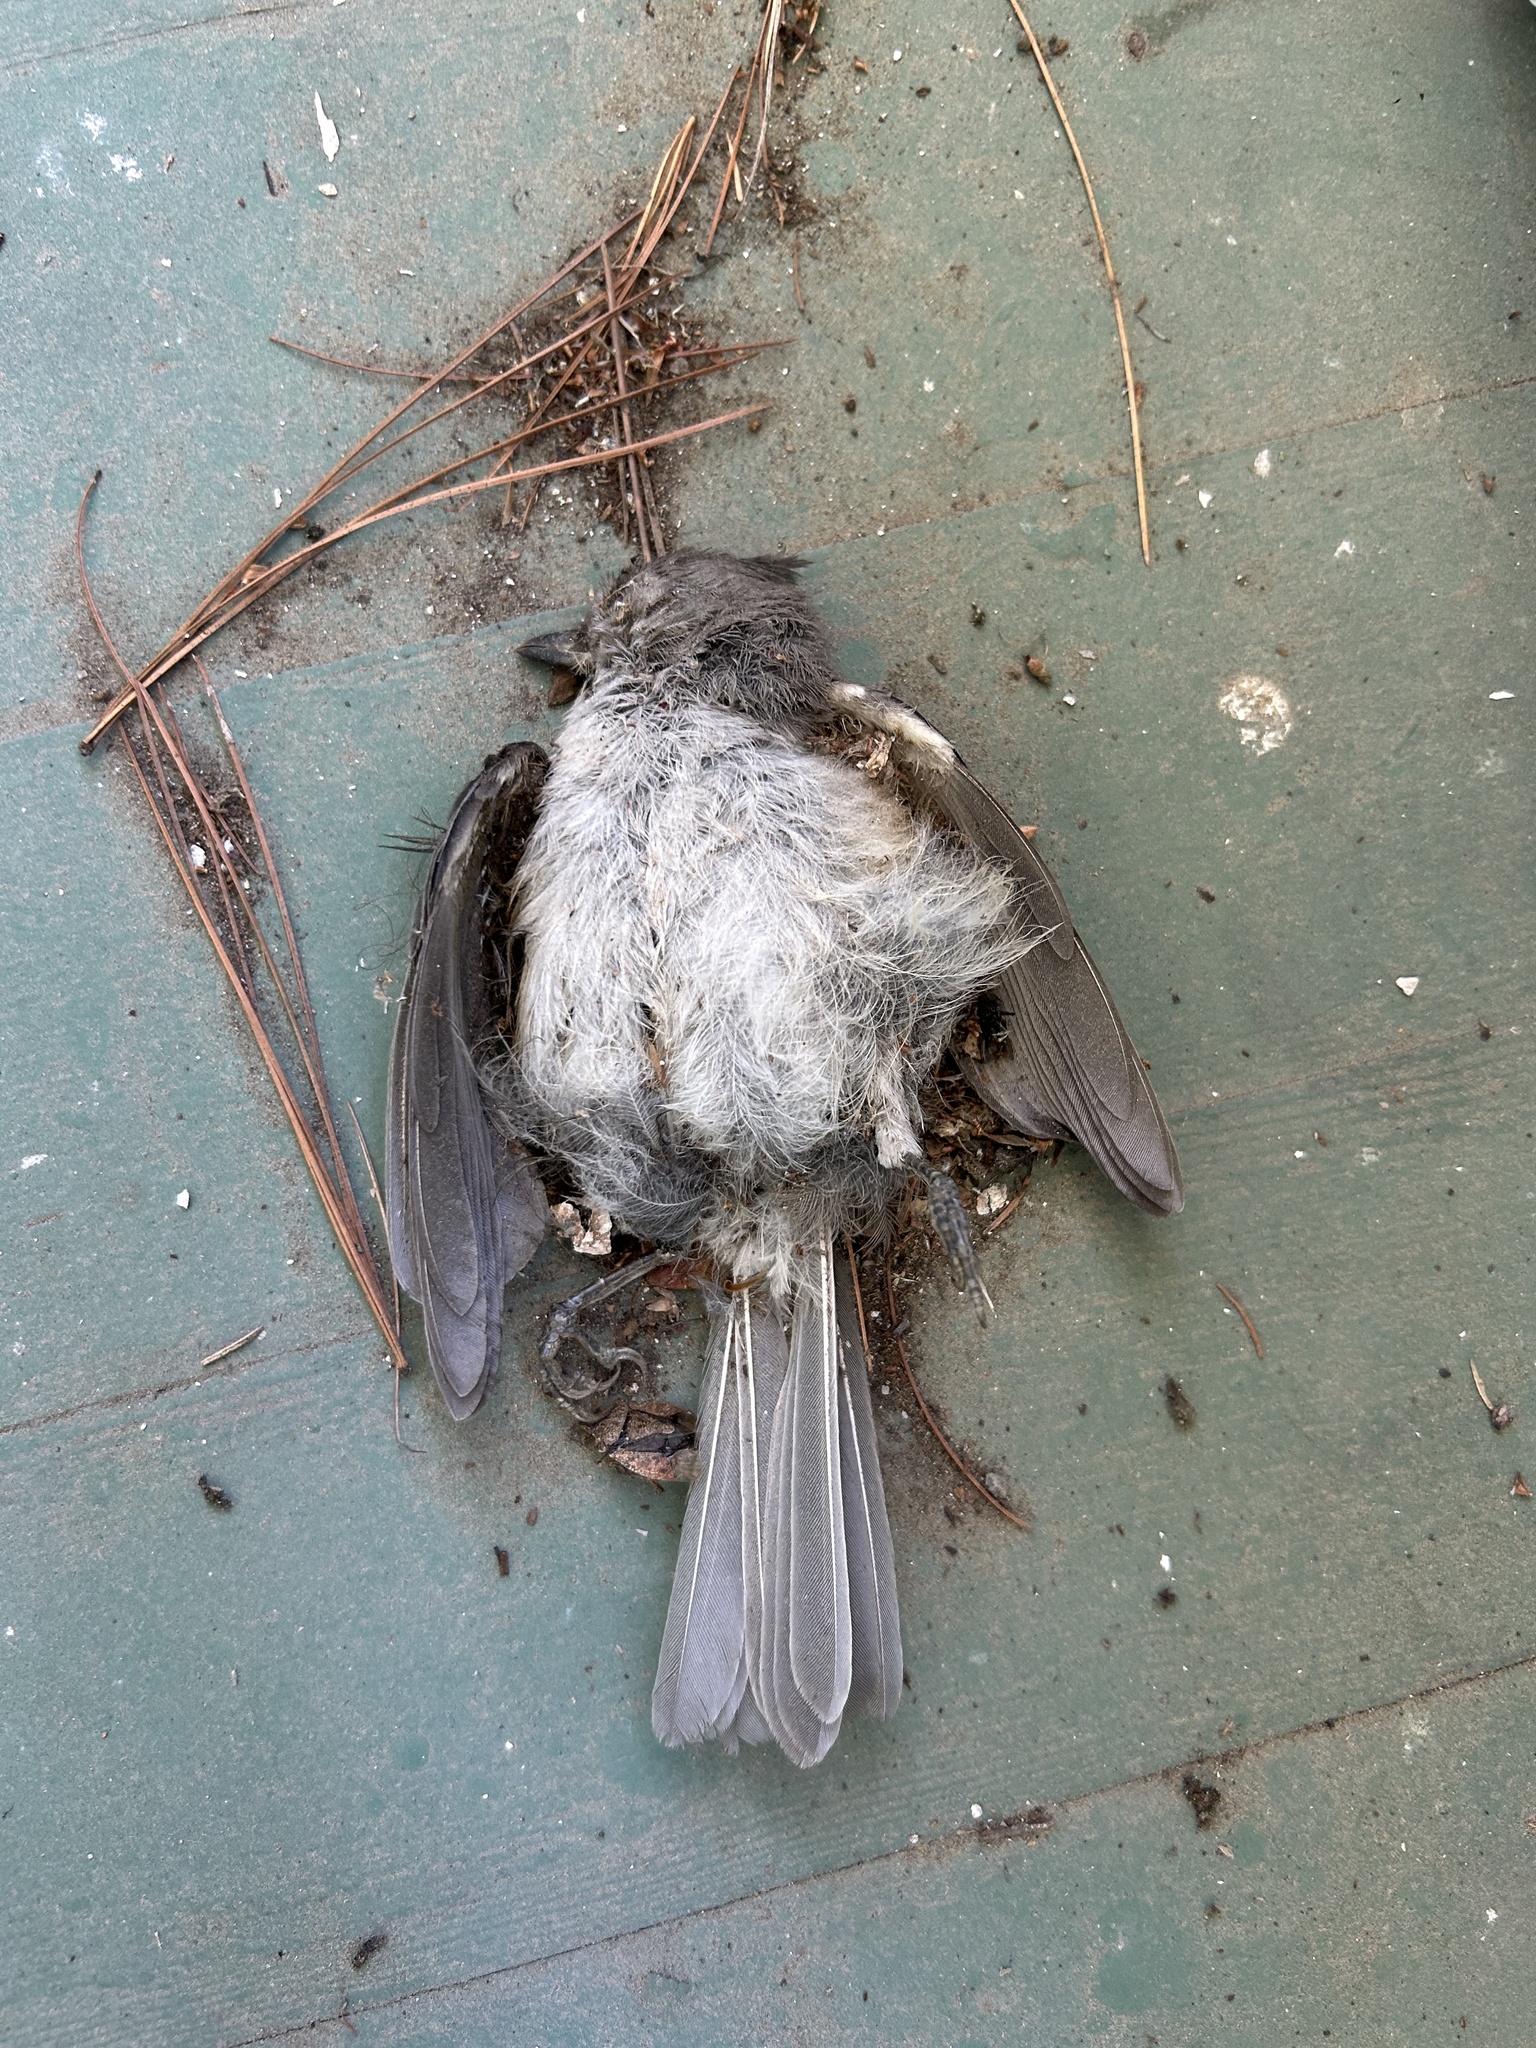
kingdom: Animalia
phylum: Chordata
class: Aves
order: Passeriformes
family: Paridae
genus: Baeolophus
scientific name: Baeolophus bicolor
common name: Tufted titmouse
